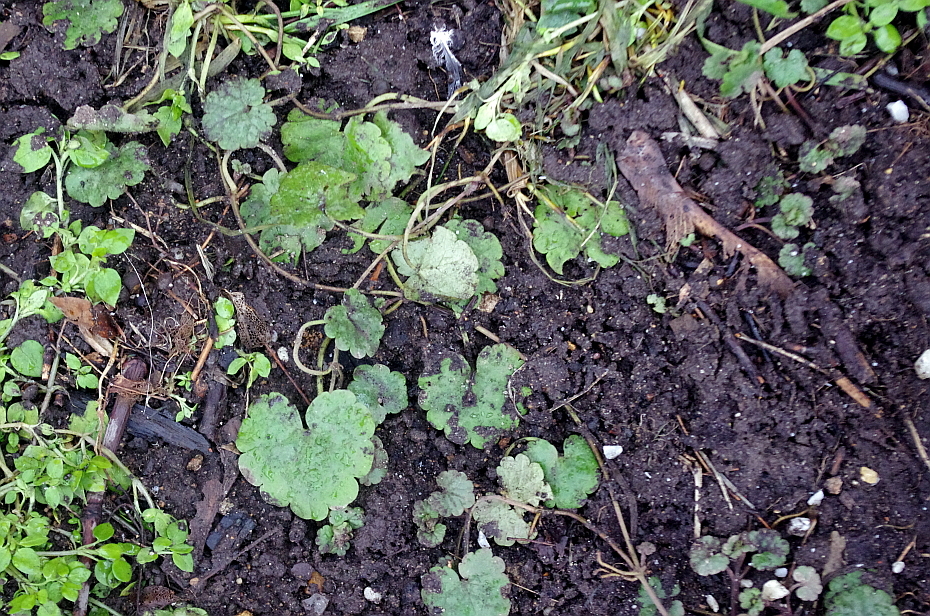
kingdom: Plantae
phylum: Tracheophyta
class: Magnoliopsida
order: Lamiales
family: Lamiaceae
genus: Glechoma
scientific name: Glechoma hederacea
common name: Ground ivy
